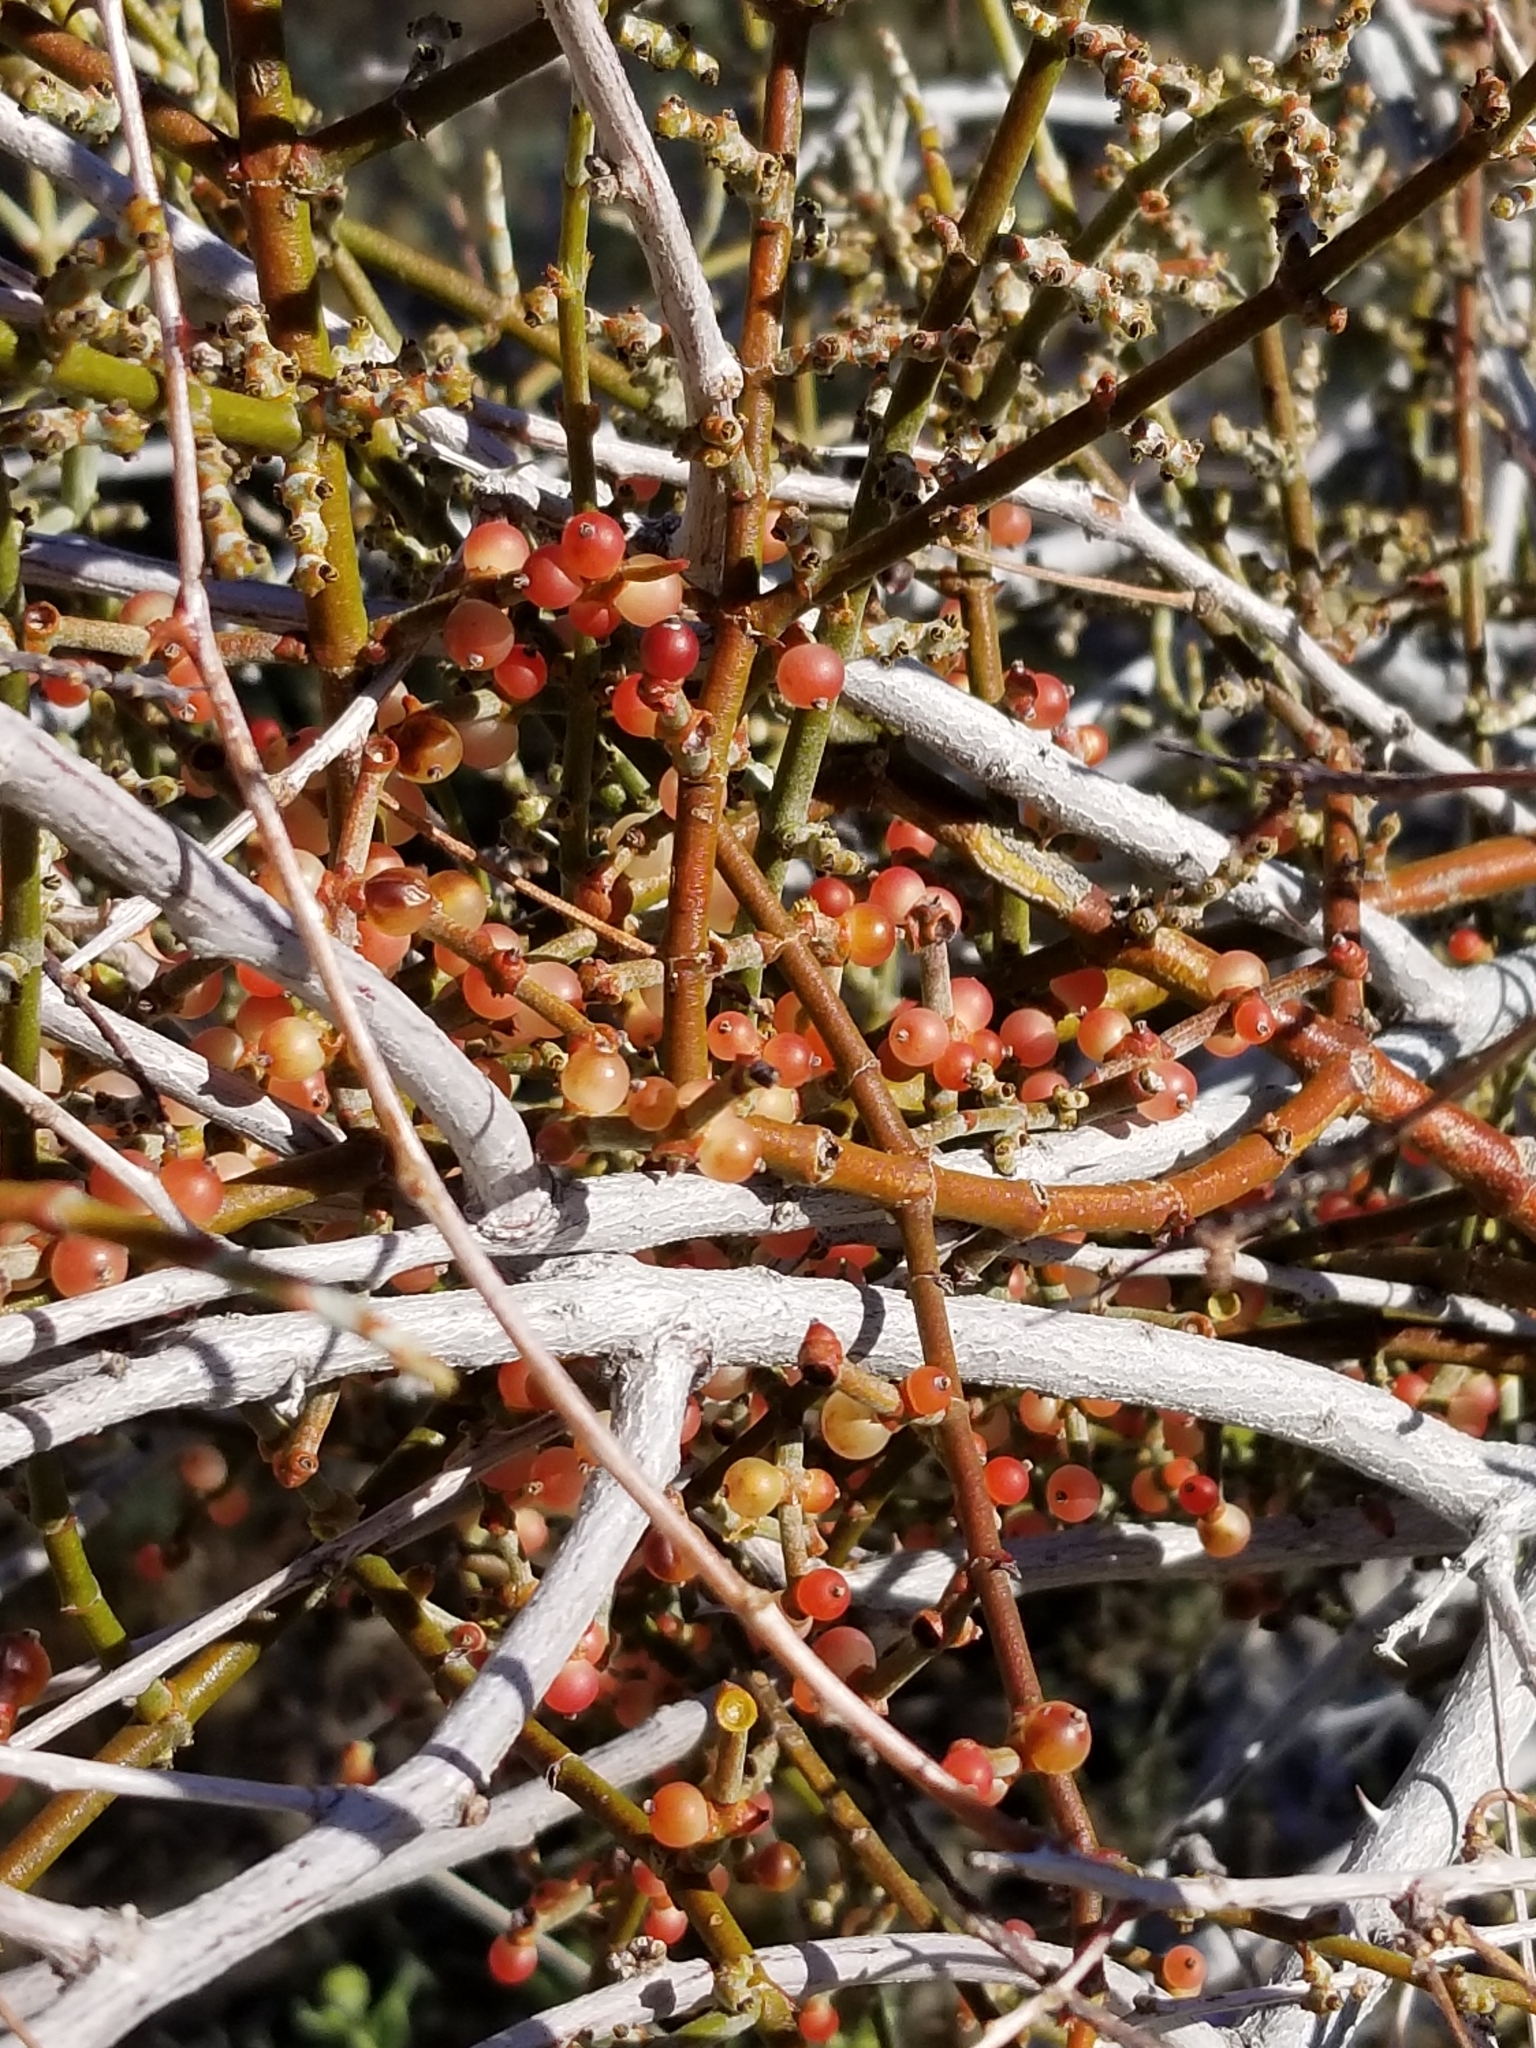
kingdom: Plantae
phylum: Tracheophyta
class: Magnoliopsida
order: Santalales
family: Viscaceae
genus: Phoradendron
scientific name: Phoradendron californicum
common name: Acacia mistletoe
